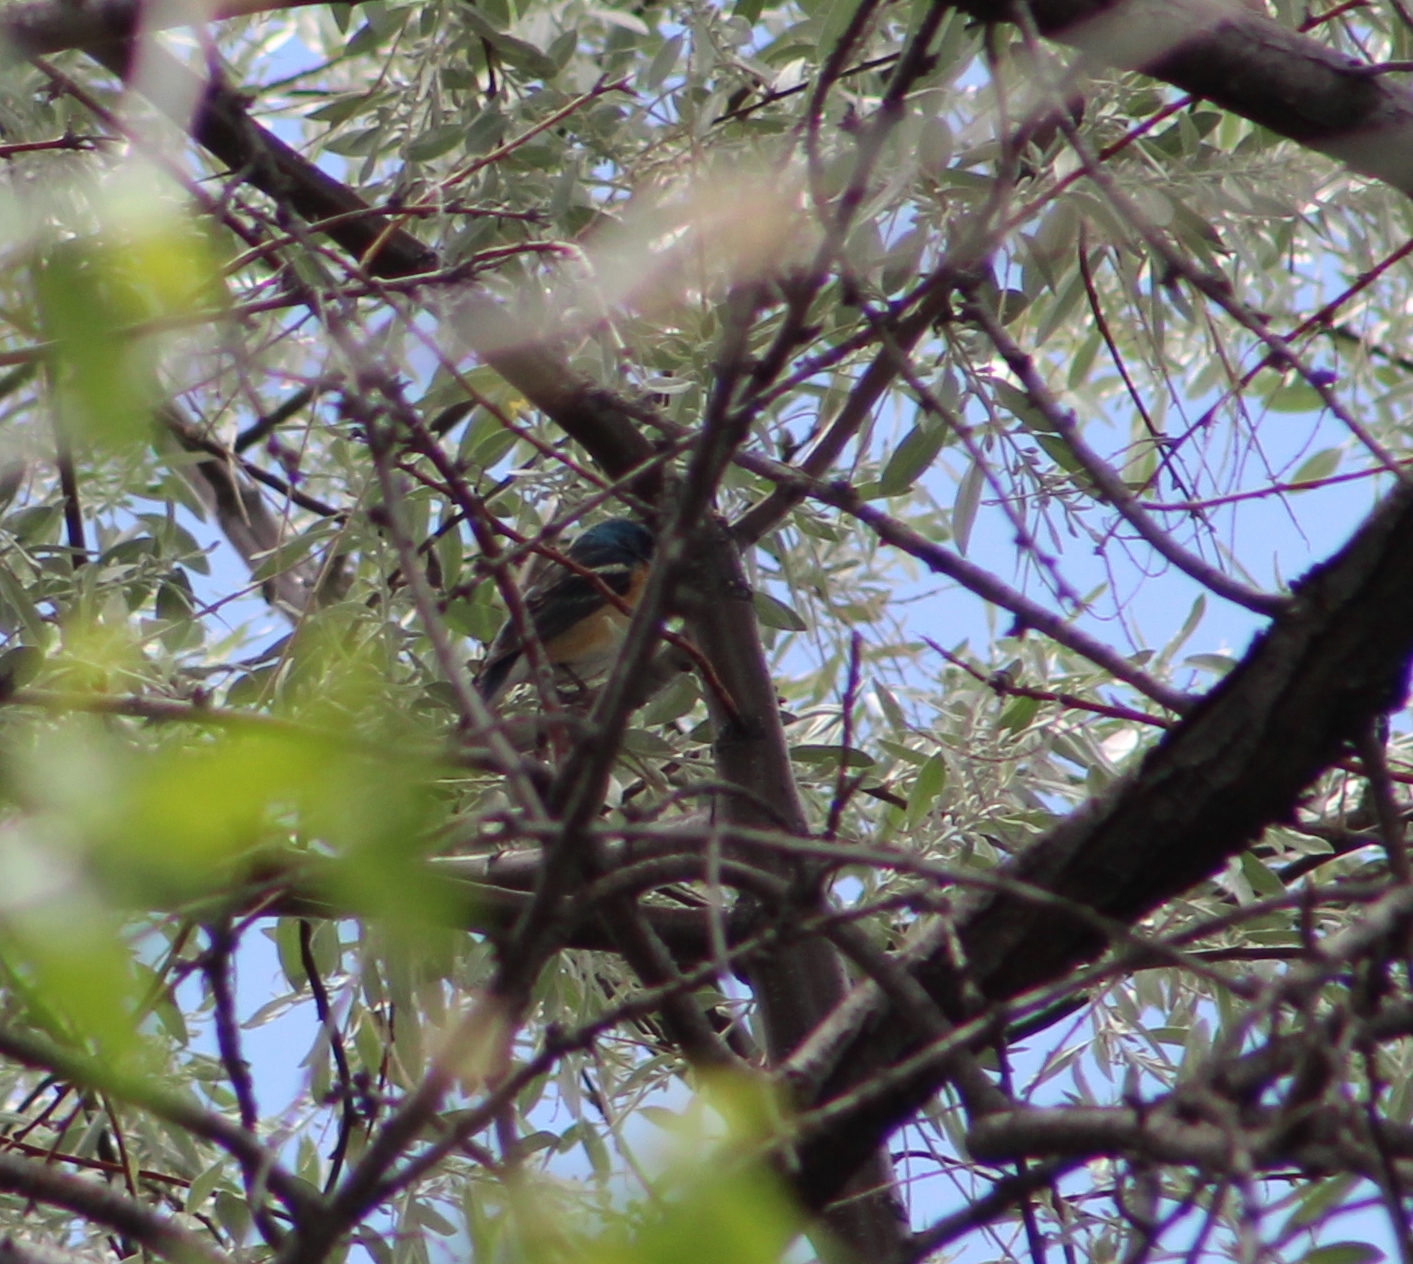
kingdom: Animalia
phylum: Chordata
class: Aves
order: Passeriformes
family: Cardinalidae
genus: Passerina
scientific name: Passerina amoena
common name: Lazuli bunting
